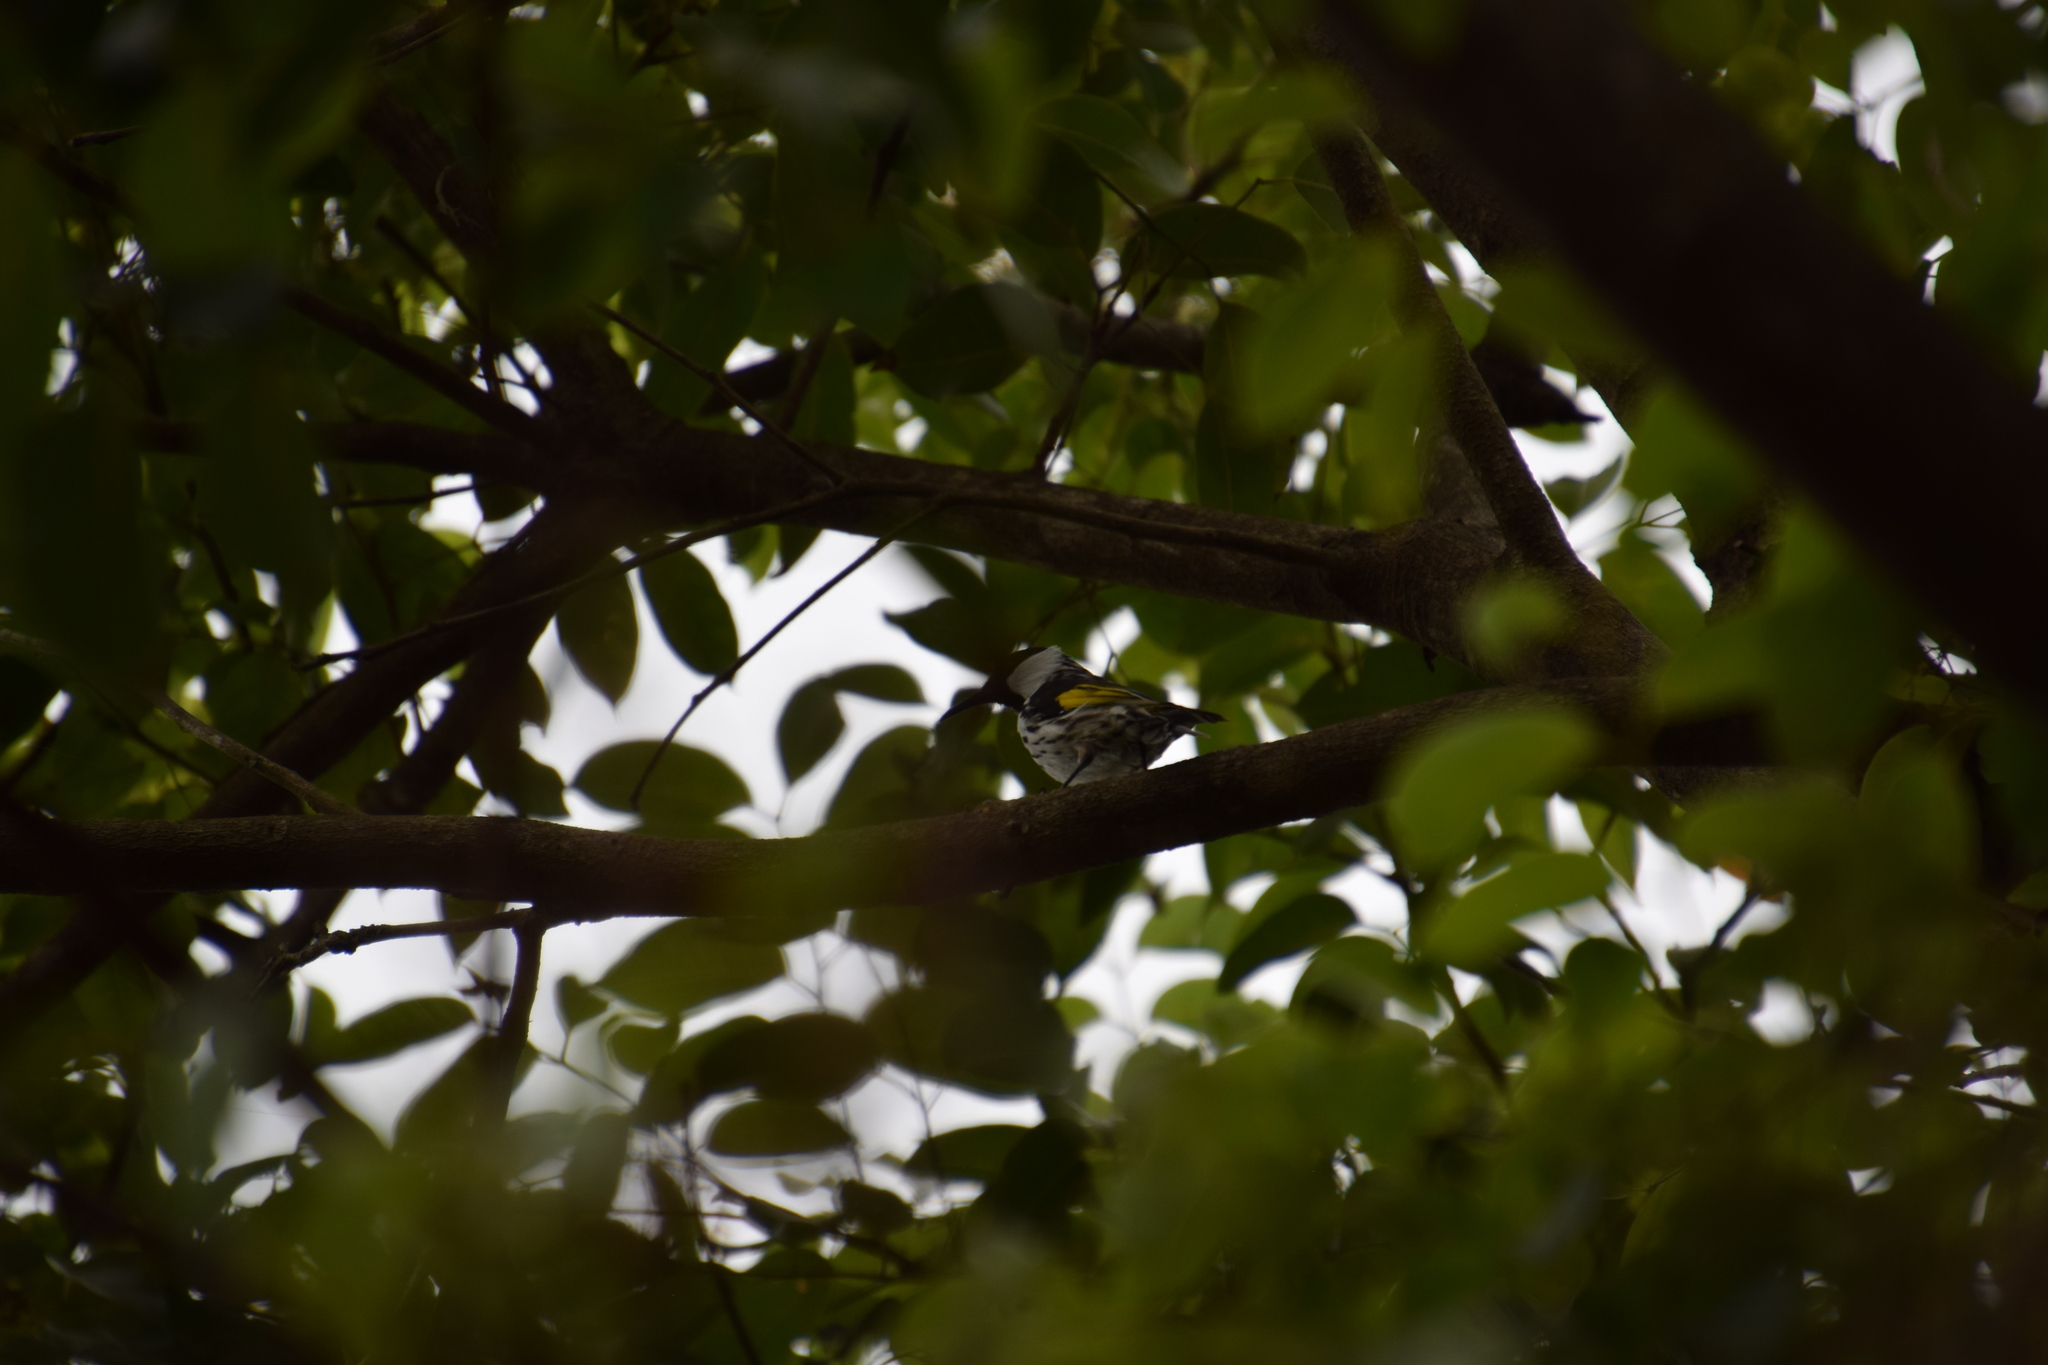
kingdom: Animalia
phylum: Chordata
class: Aves
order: Passeriformes
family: Meliphagidae
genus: Phylidonyris
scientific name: Phylidonyris niger
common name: White-cheeked honeyeater
